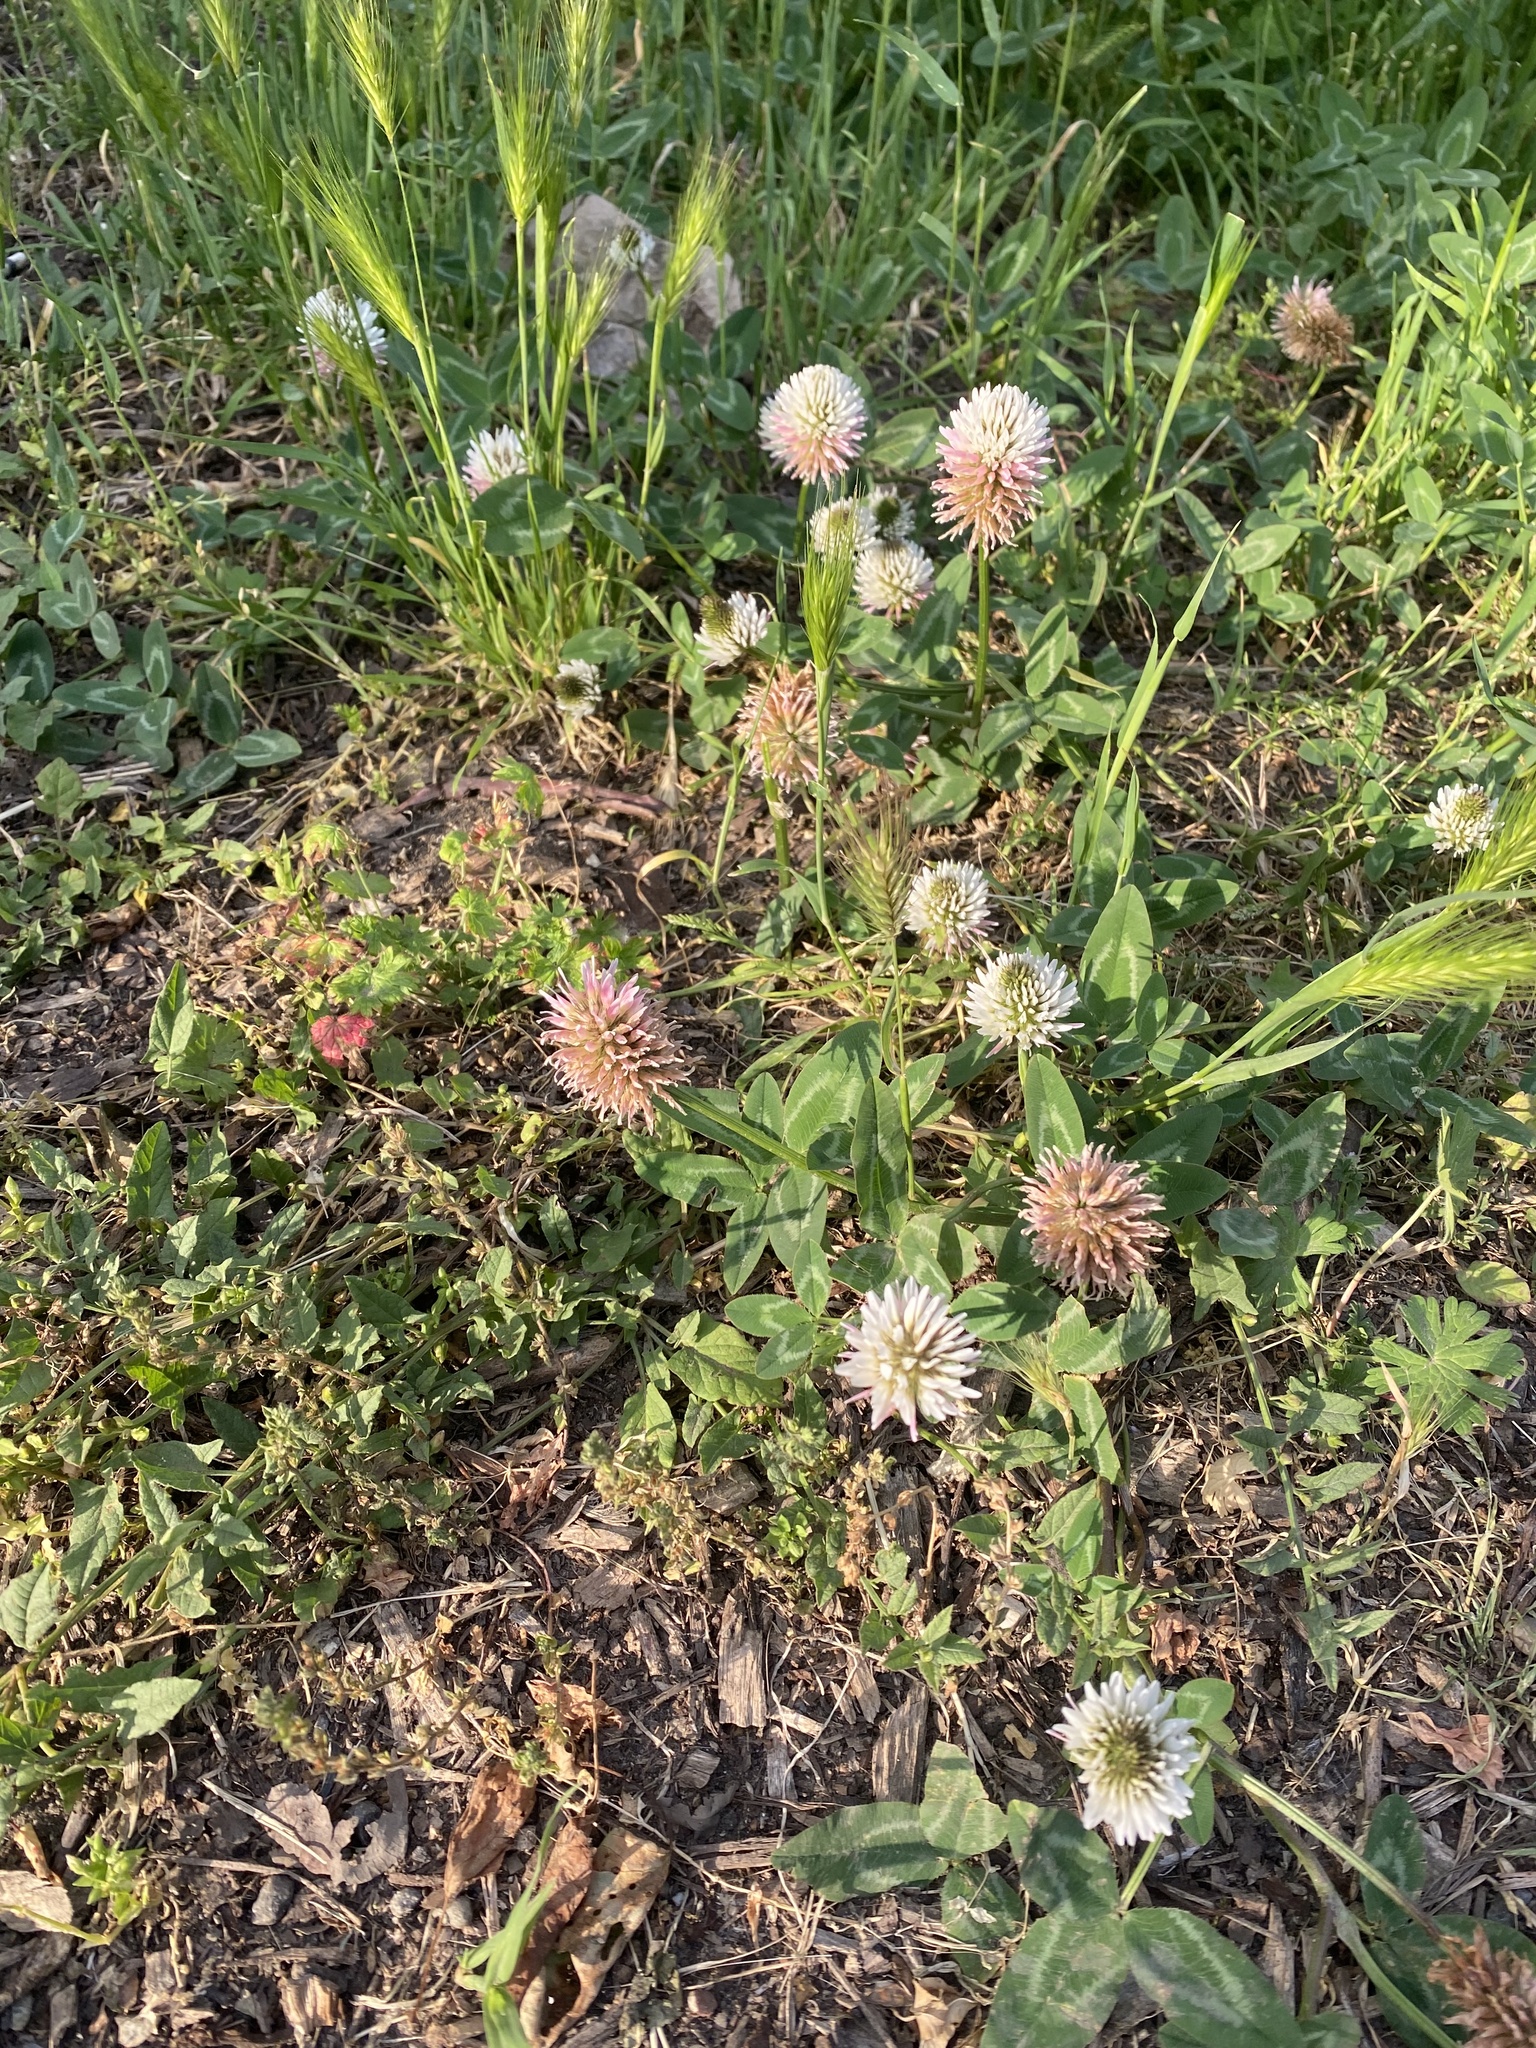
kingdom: Plantae
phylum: Tracheophyta
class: Magnoliopsida
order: Fabales
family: Fabaceae
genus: Trifolium
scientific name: Trifolium ambiguum
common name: Kura clover
